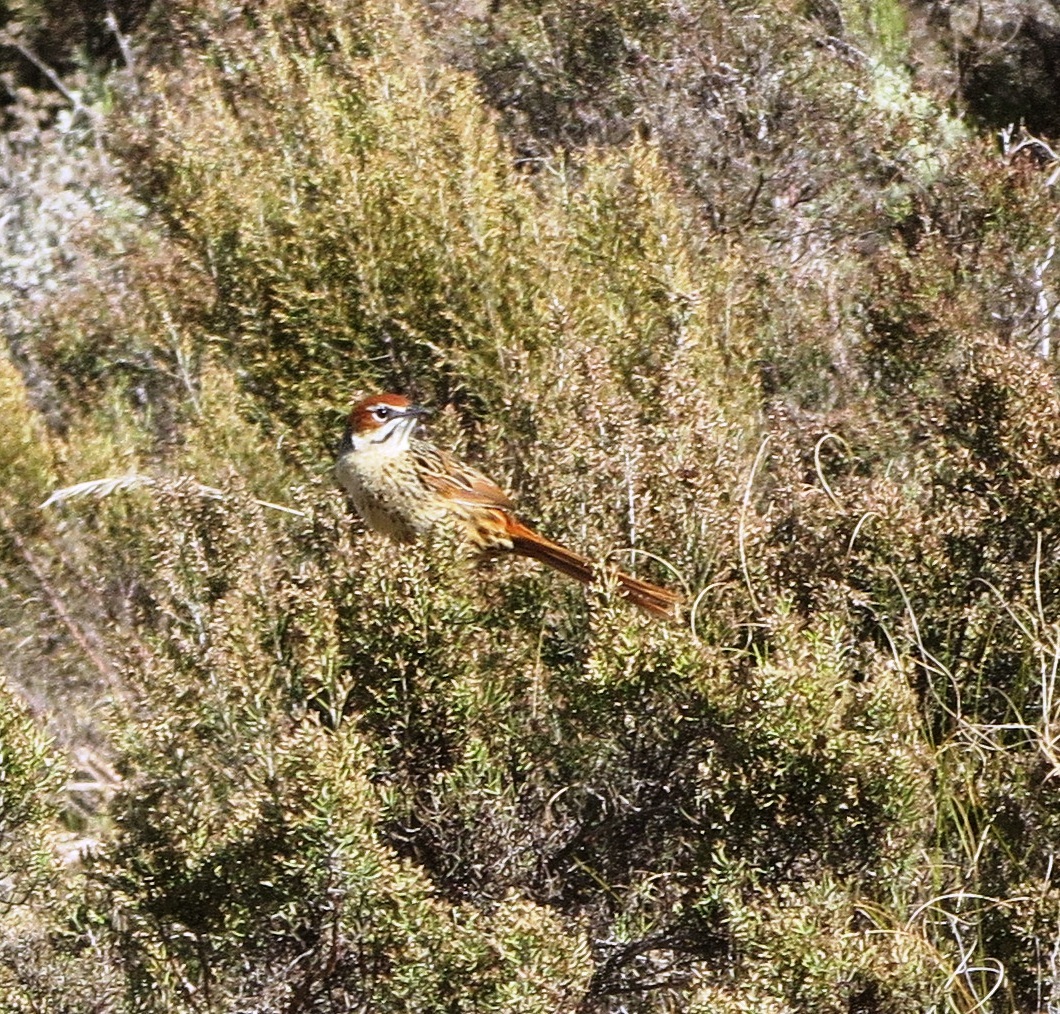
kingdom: Animalia
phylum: Chordata
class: Aves
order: Passeriformes
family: Macrosphenidae
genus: Sphenoeacus
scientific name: Sphenoeacus afer
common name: Cape grassbird
